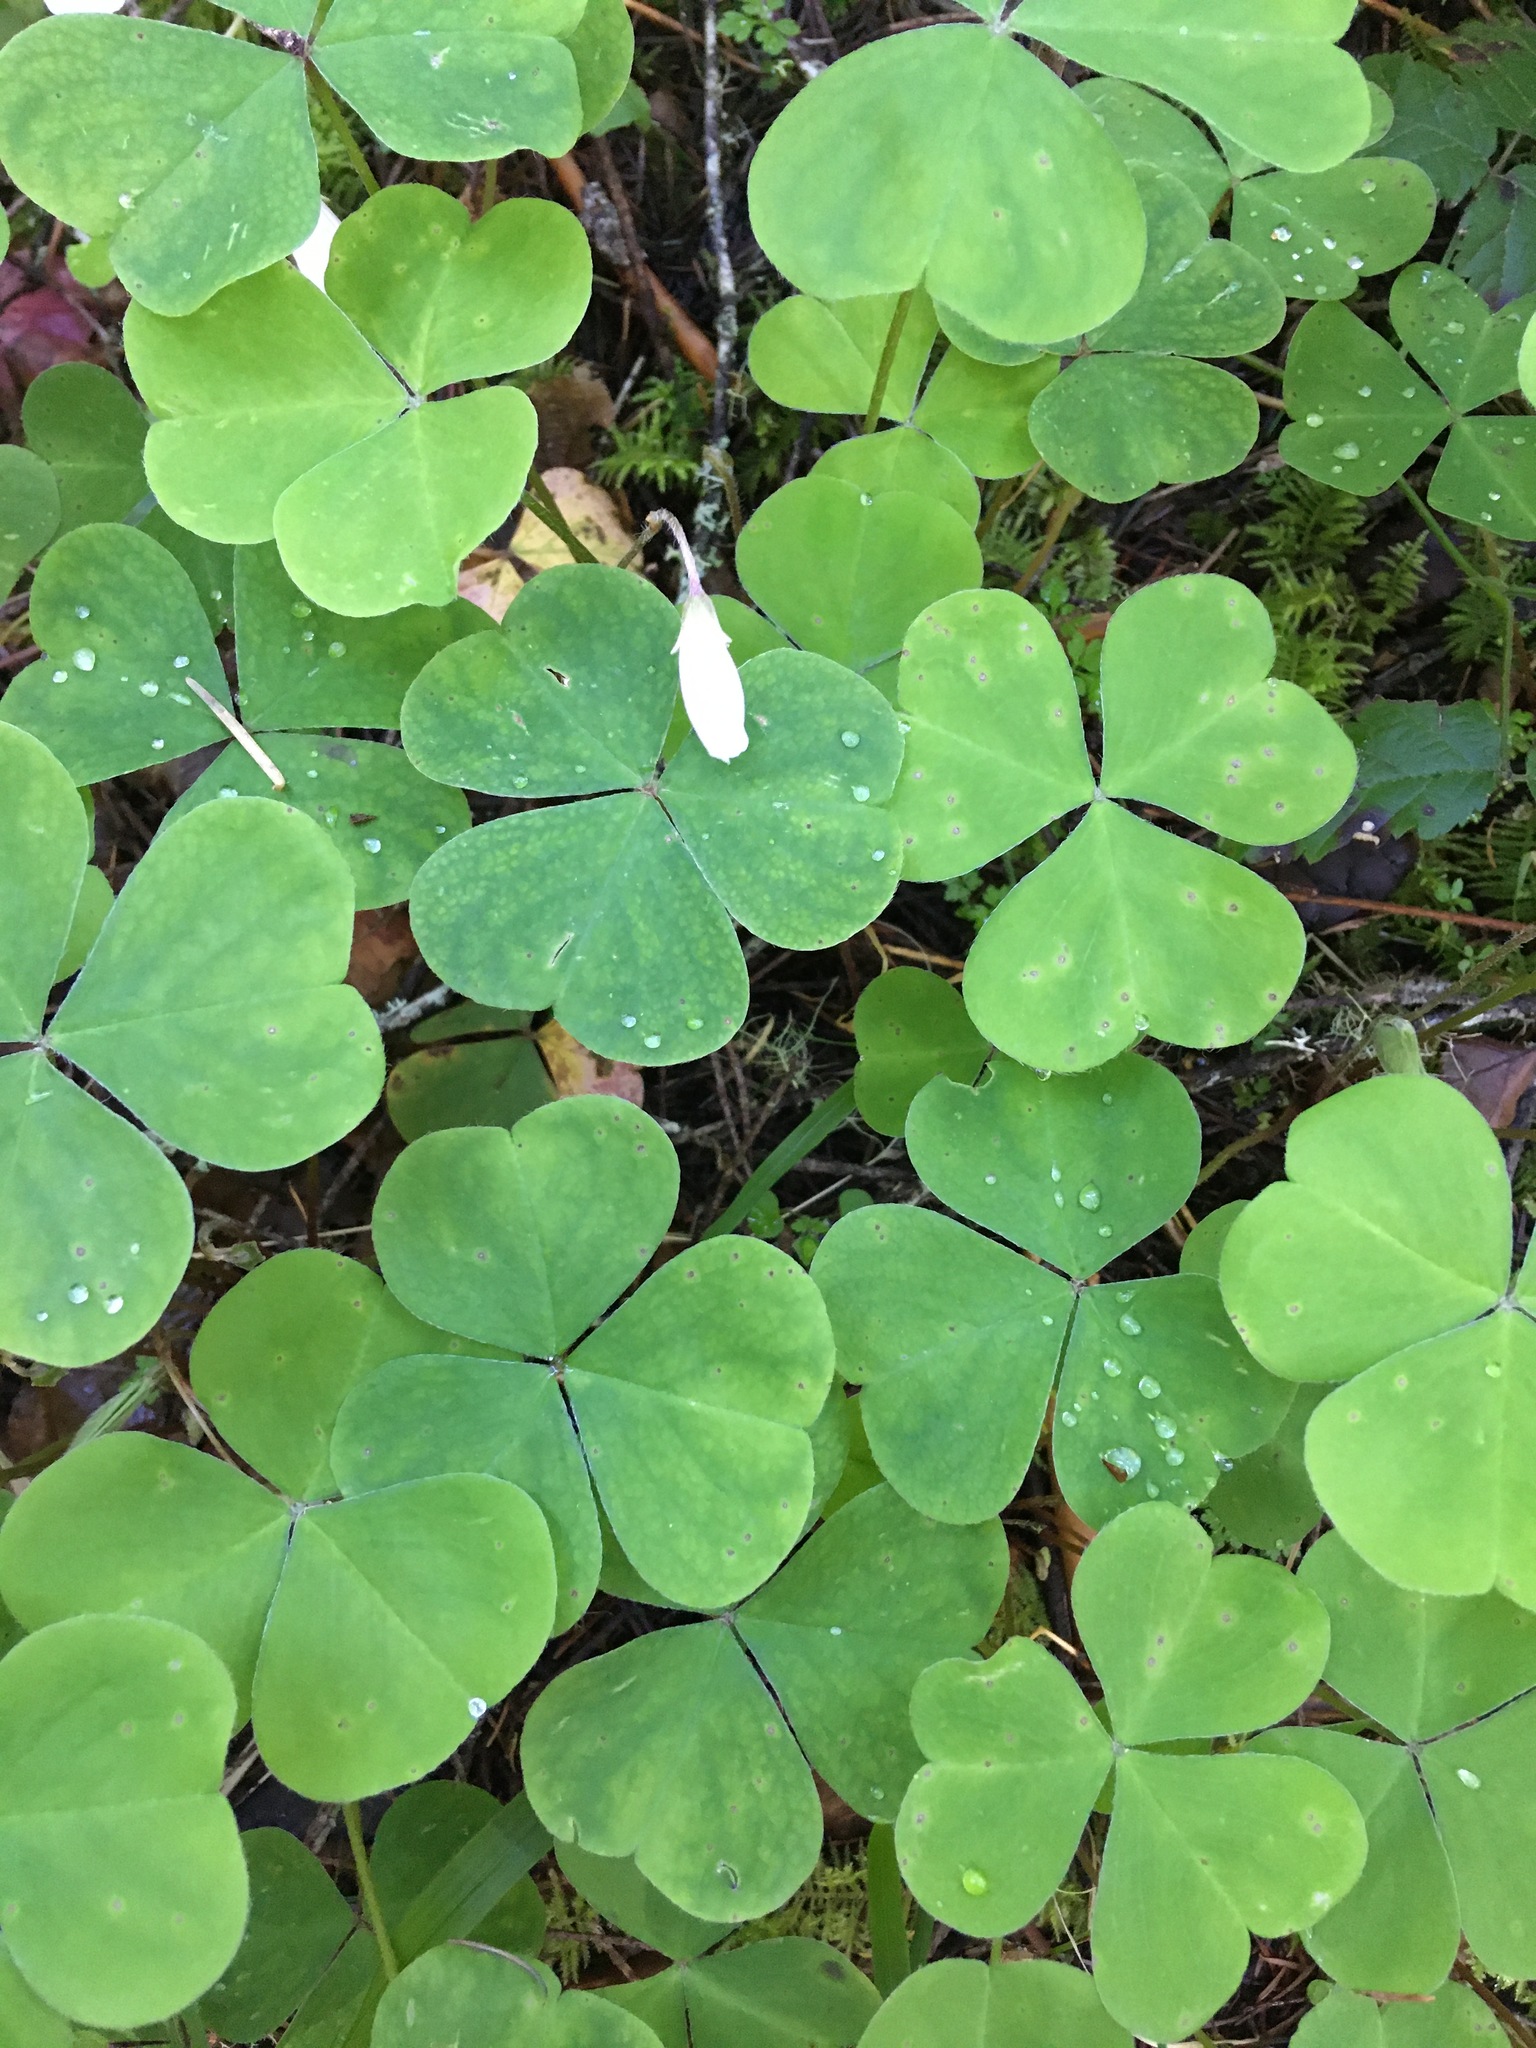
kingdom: Plantae
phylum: Tracheophyta
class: Magnoliopsida
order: Oxalidales
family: Oxalidaceae
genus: Oxalis
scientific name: Oxalis oregana
